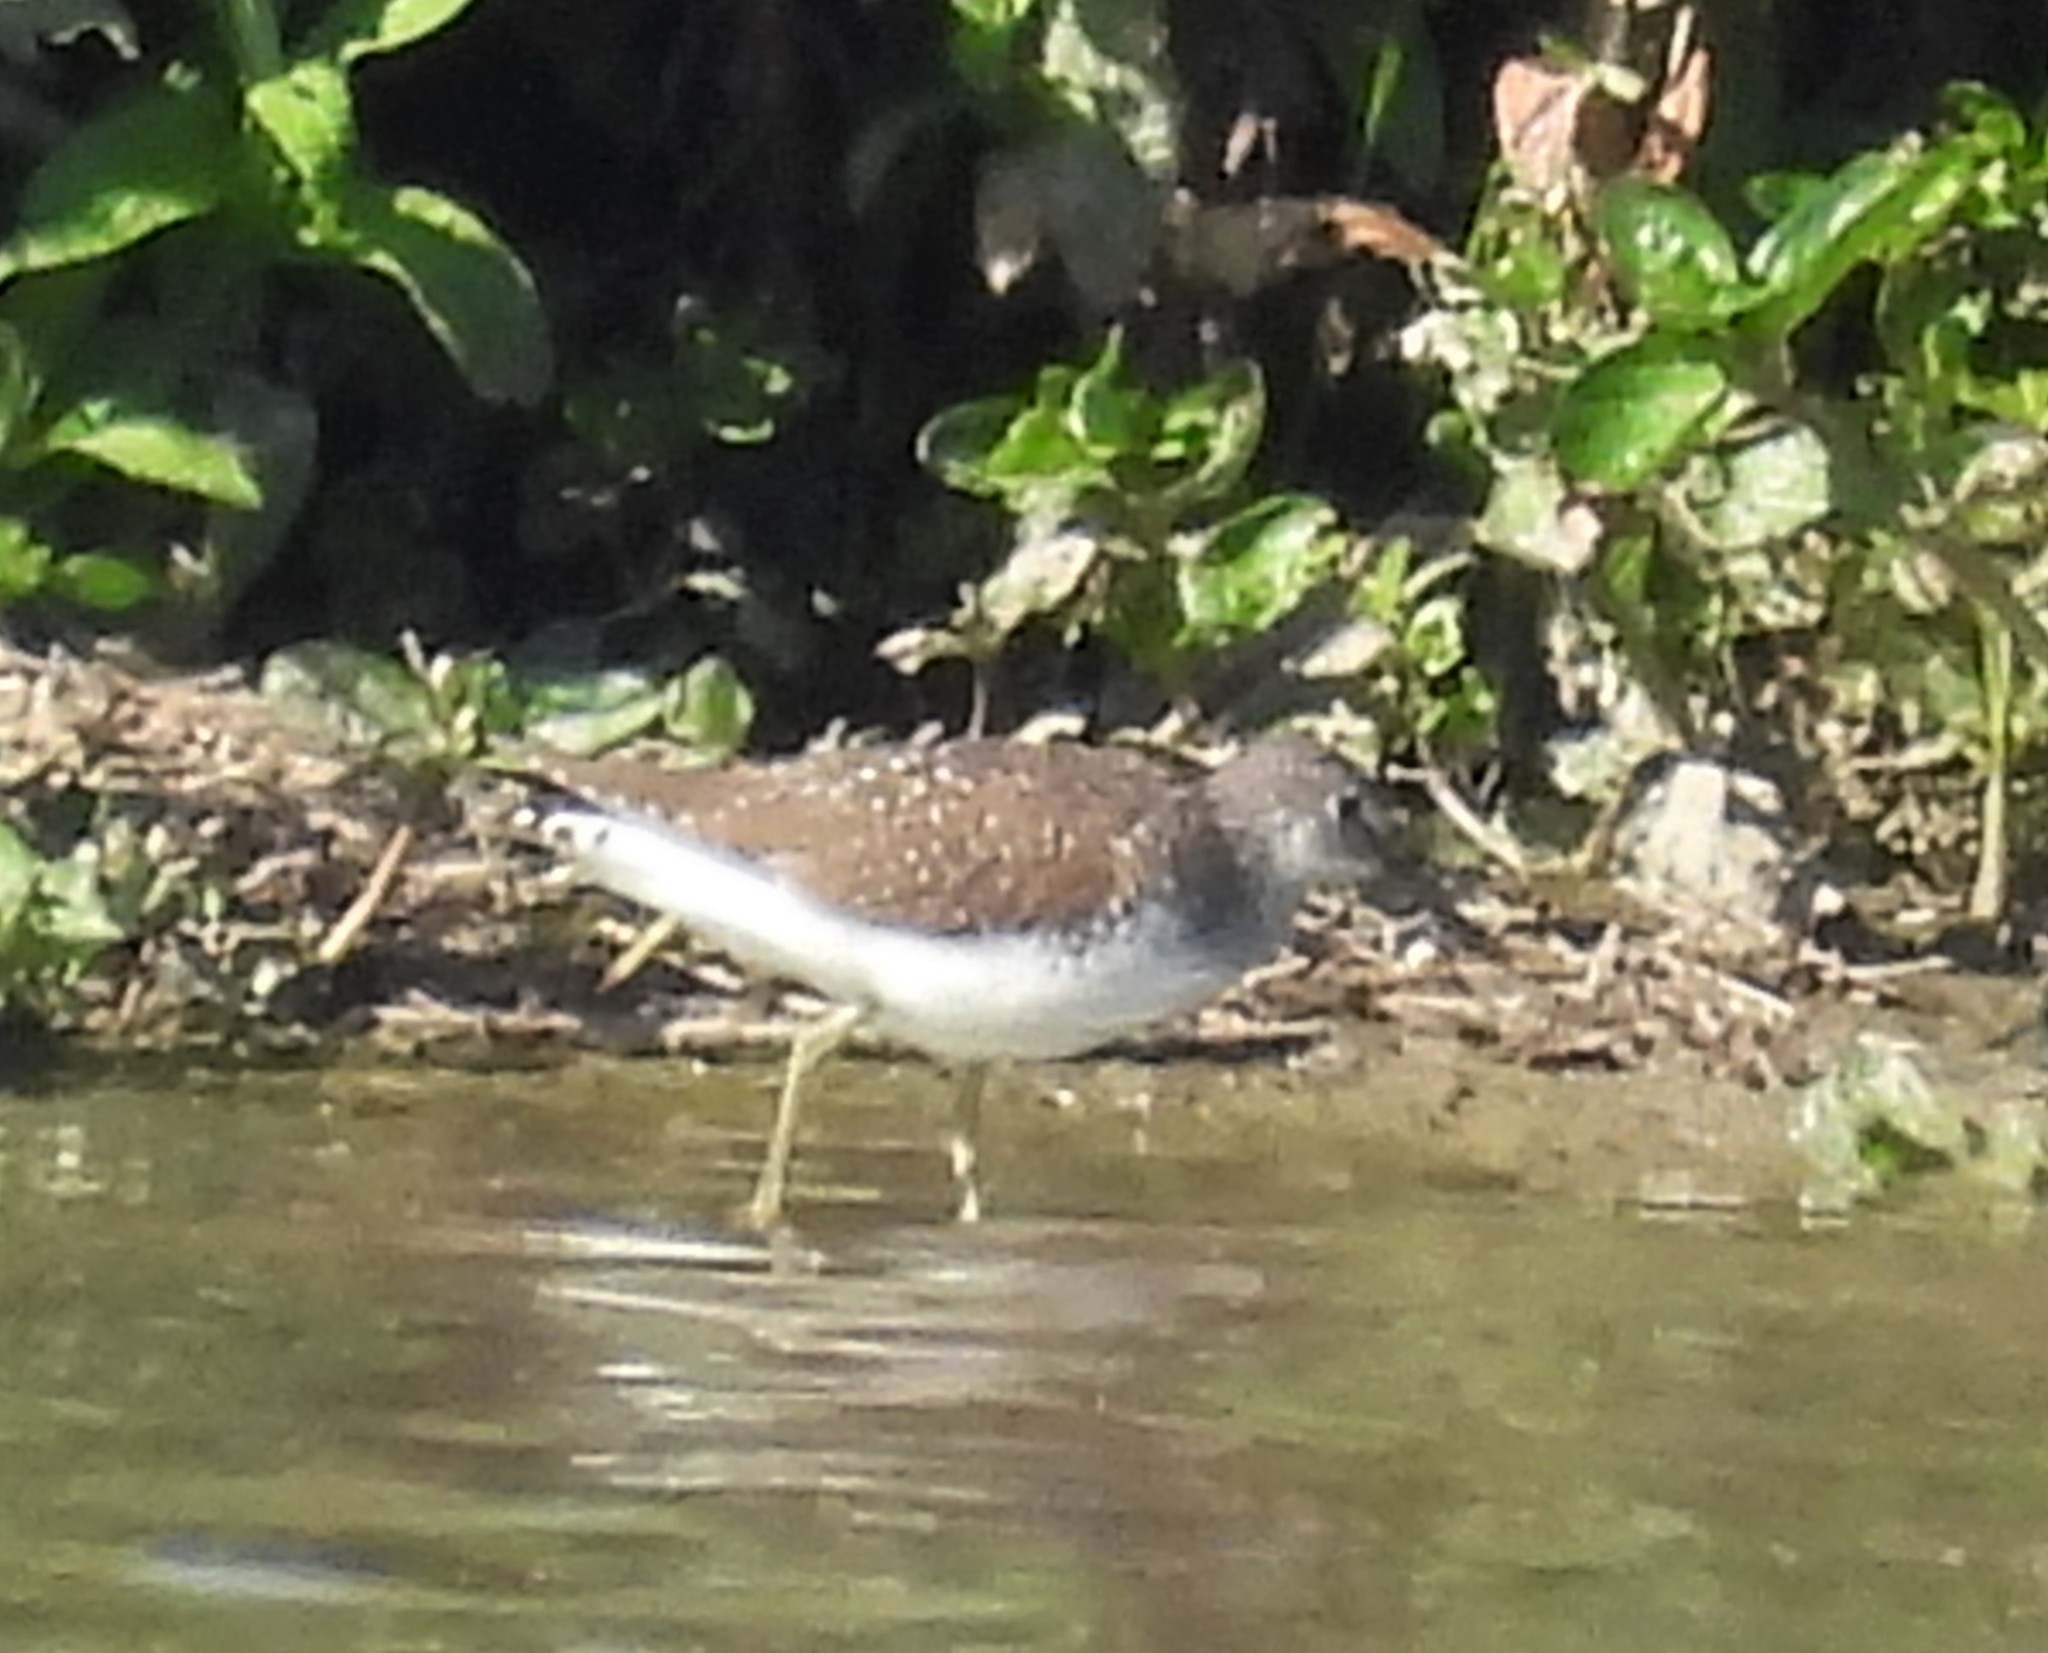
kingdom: Animalia
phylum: Chordata
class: Aves
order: Charadriiformes
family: Scolopacidae
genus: Tringa
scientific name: Tringa ochropus
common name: Green sandpiper
